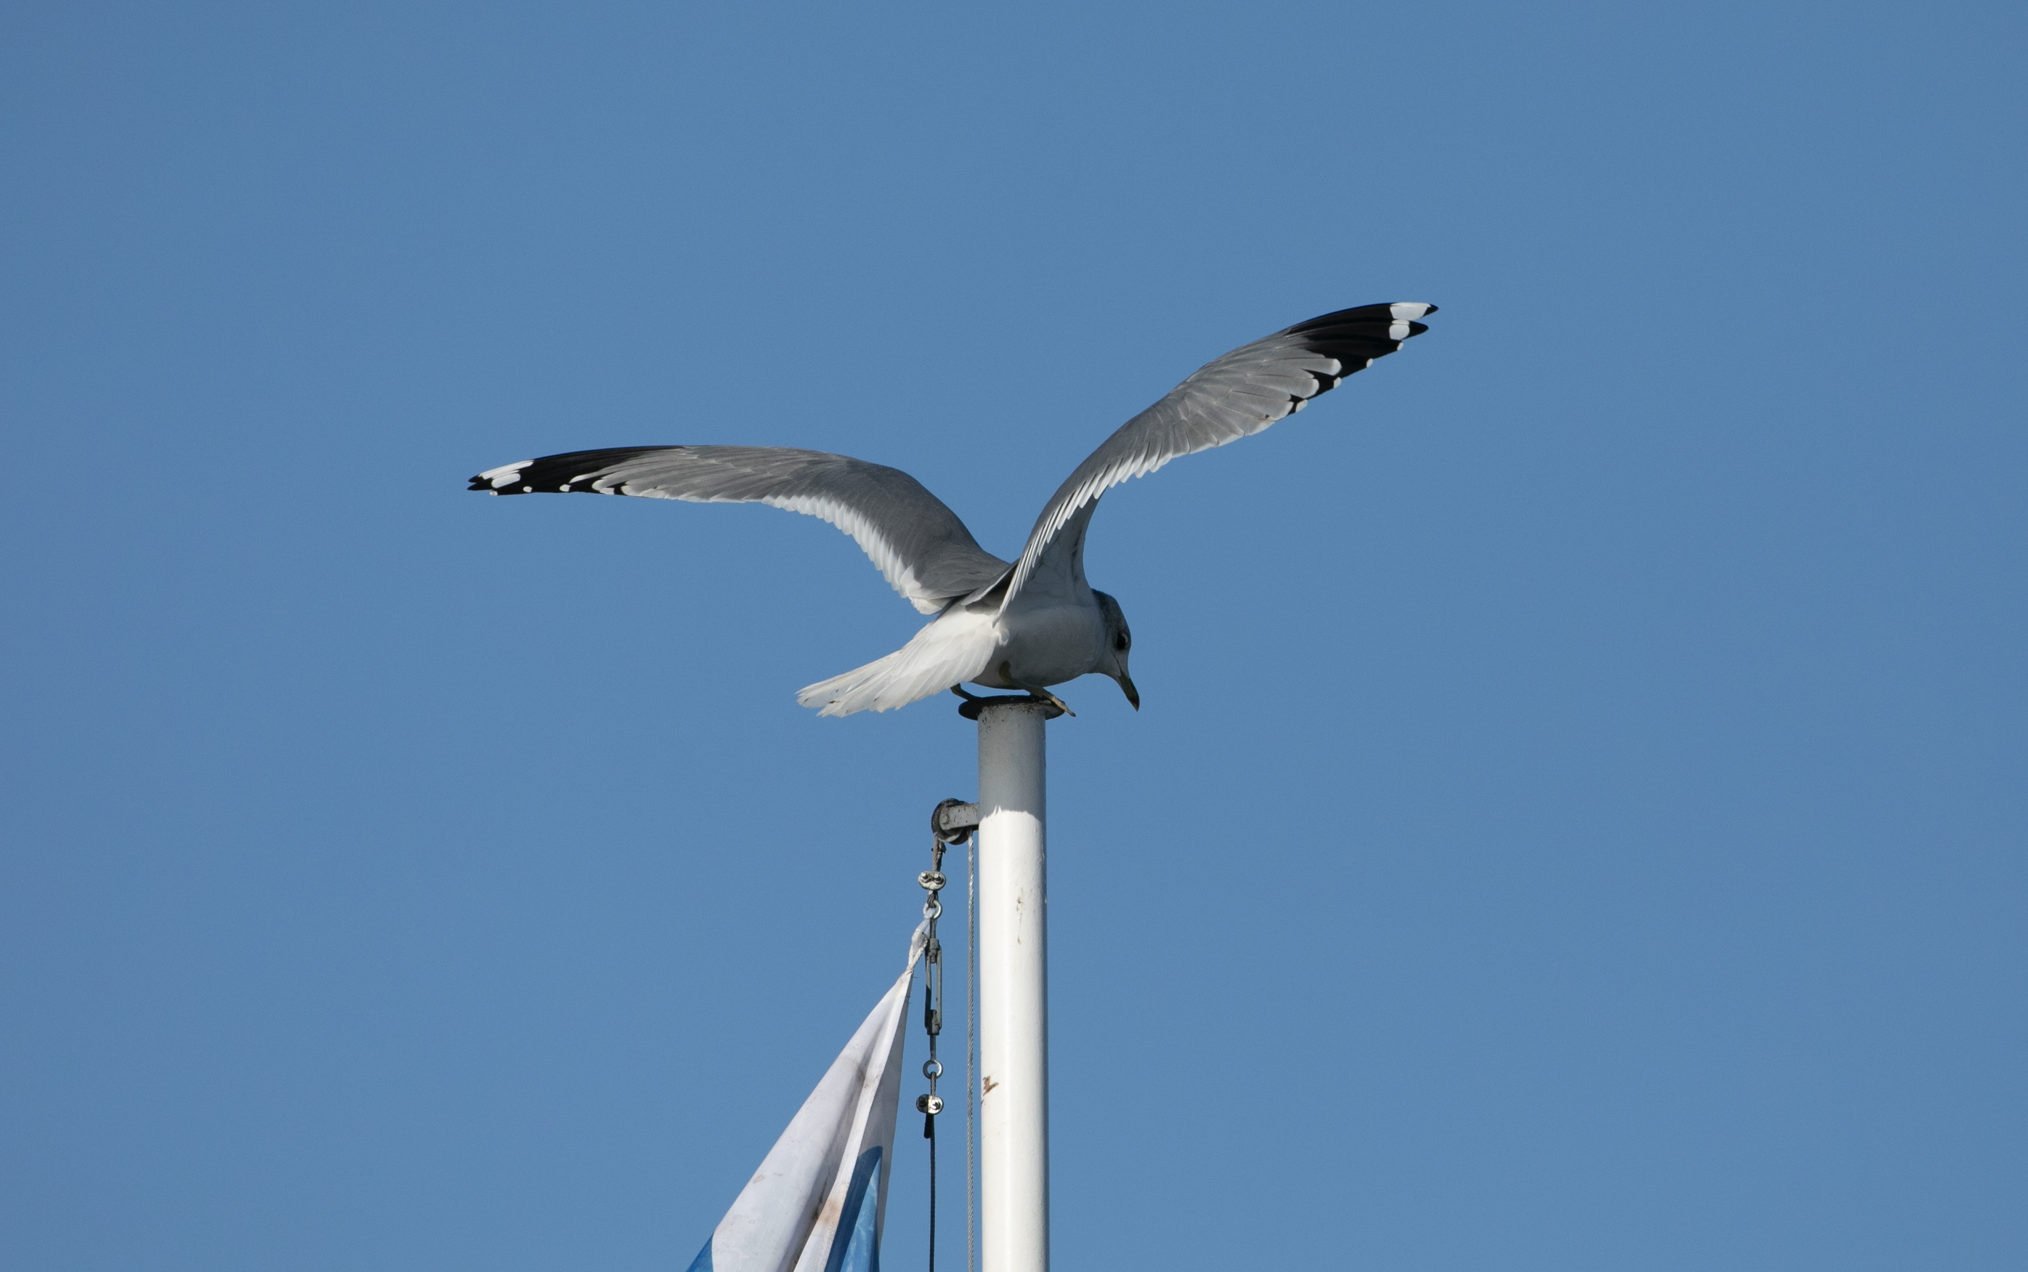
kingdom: Animalia
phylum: Chordata
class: Aves
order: Charadriiformes
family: Laridae
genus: Larus
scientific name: Larus canus
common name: Mew gull
